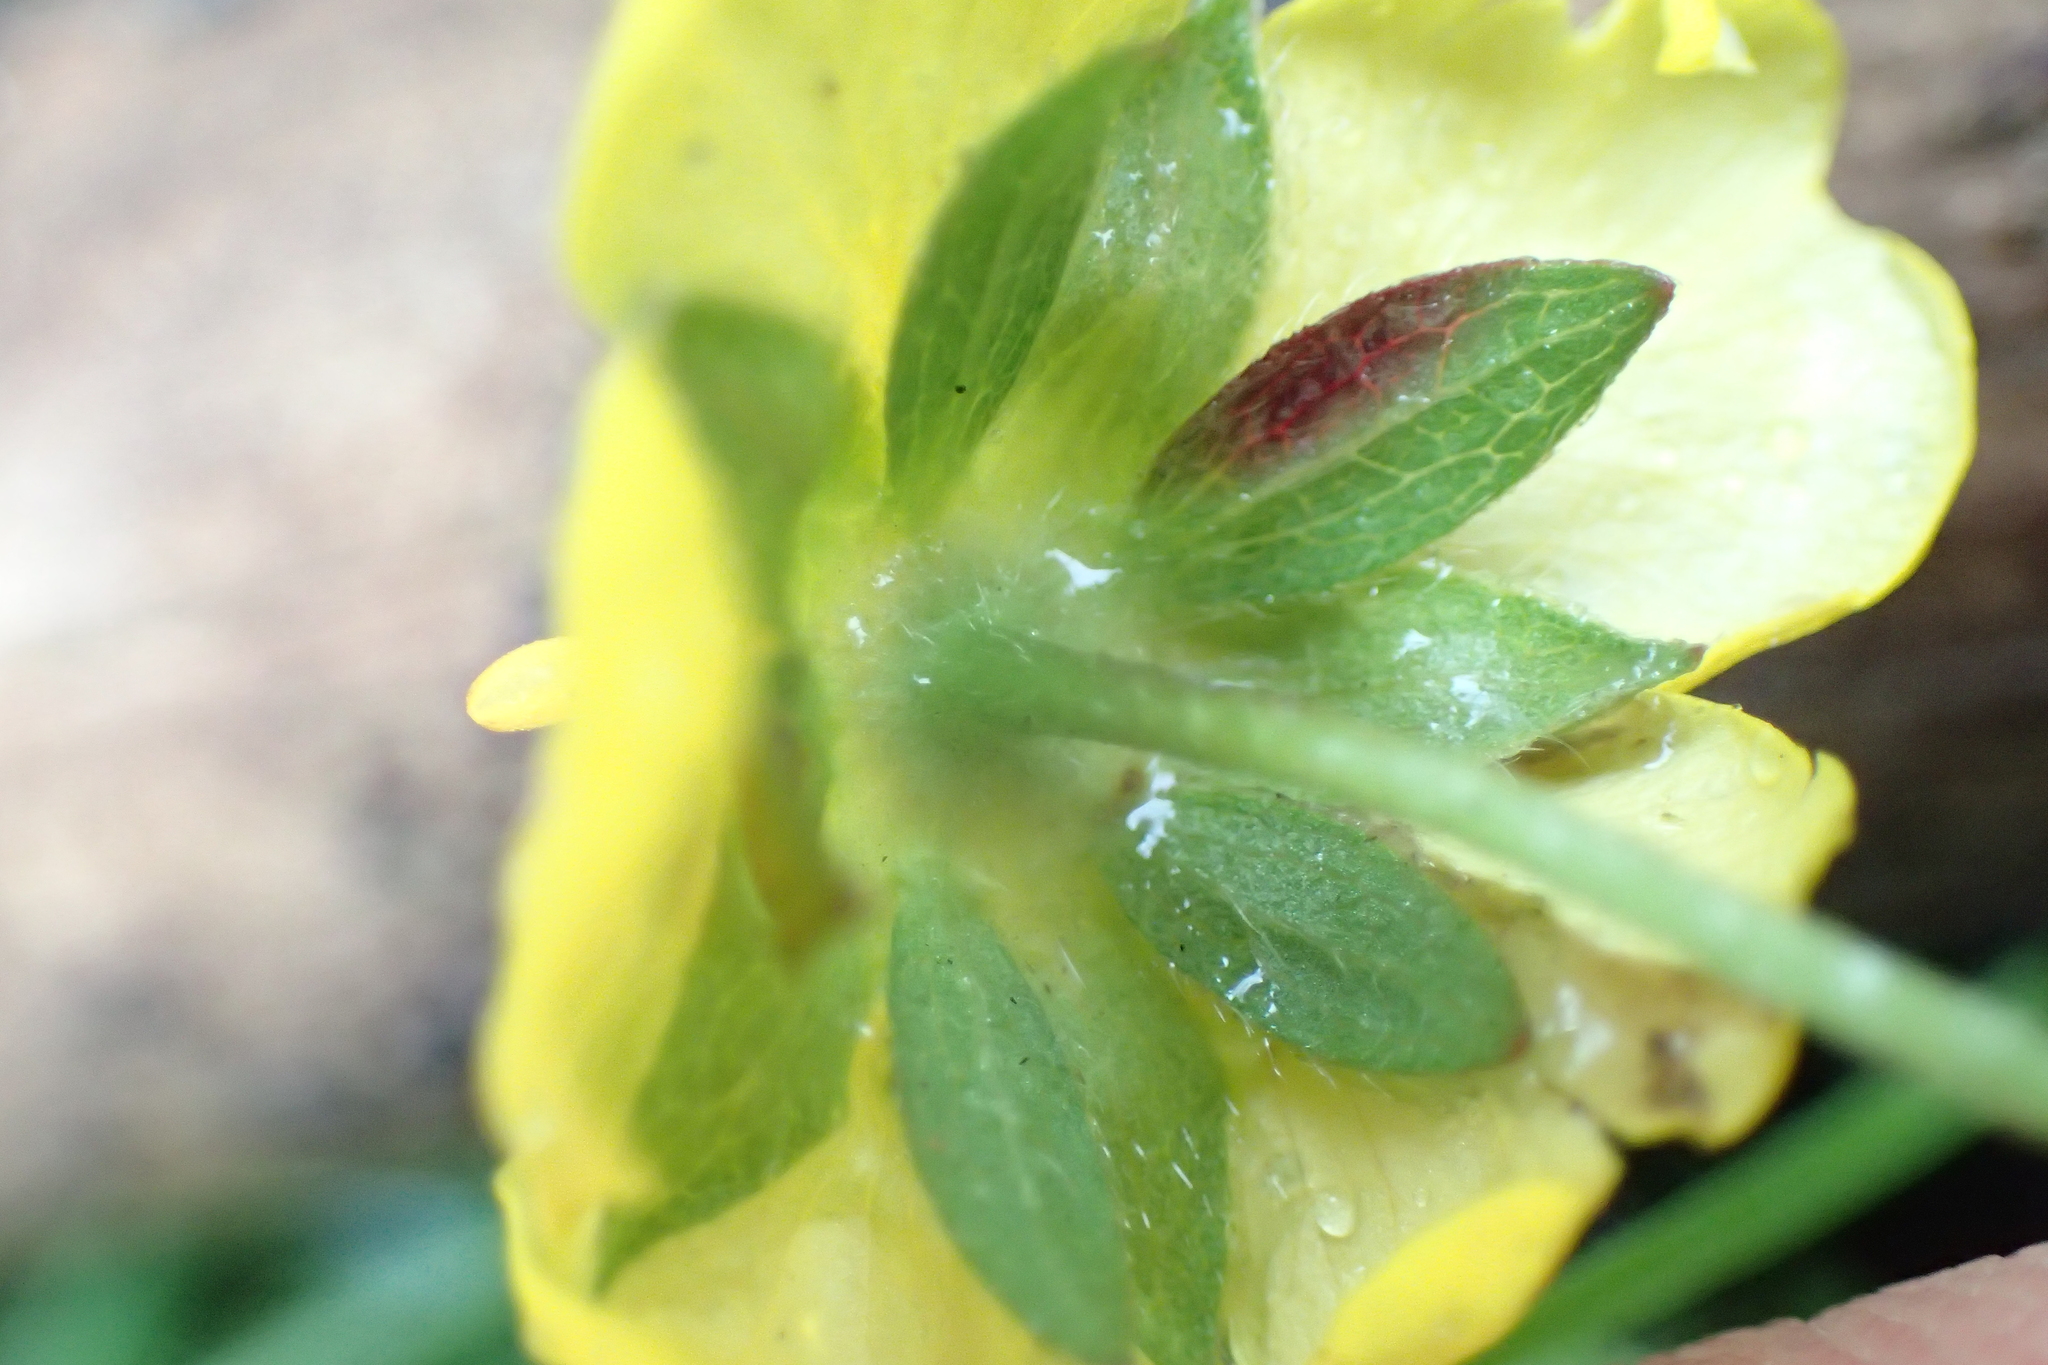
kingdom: Plantae
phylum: Tracheophyta
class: Magnoliopsida
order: Rosales
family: Rosaceae
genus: Potentilla
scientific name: Potentilla reptans
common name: Creeping cinquefoil
